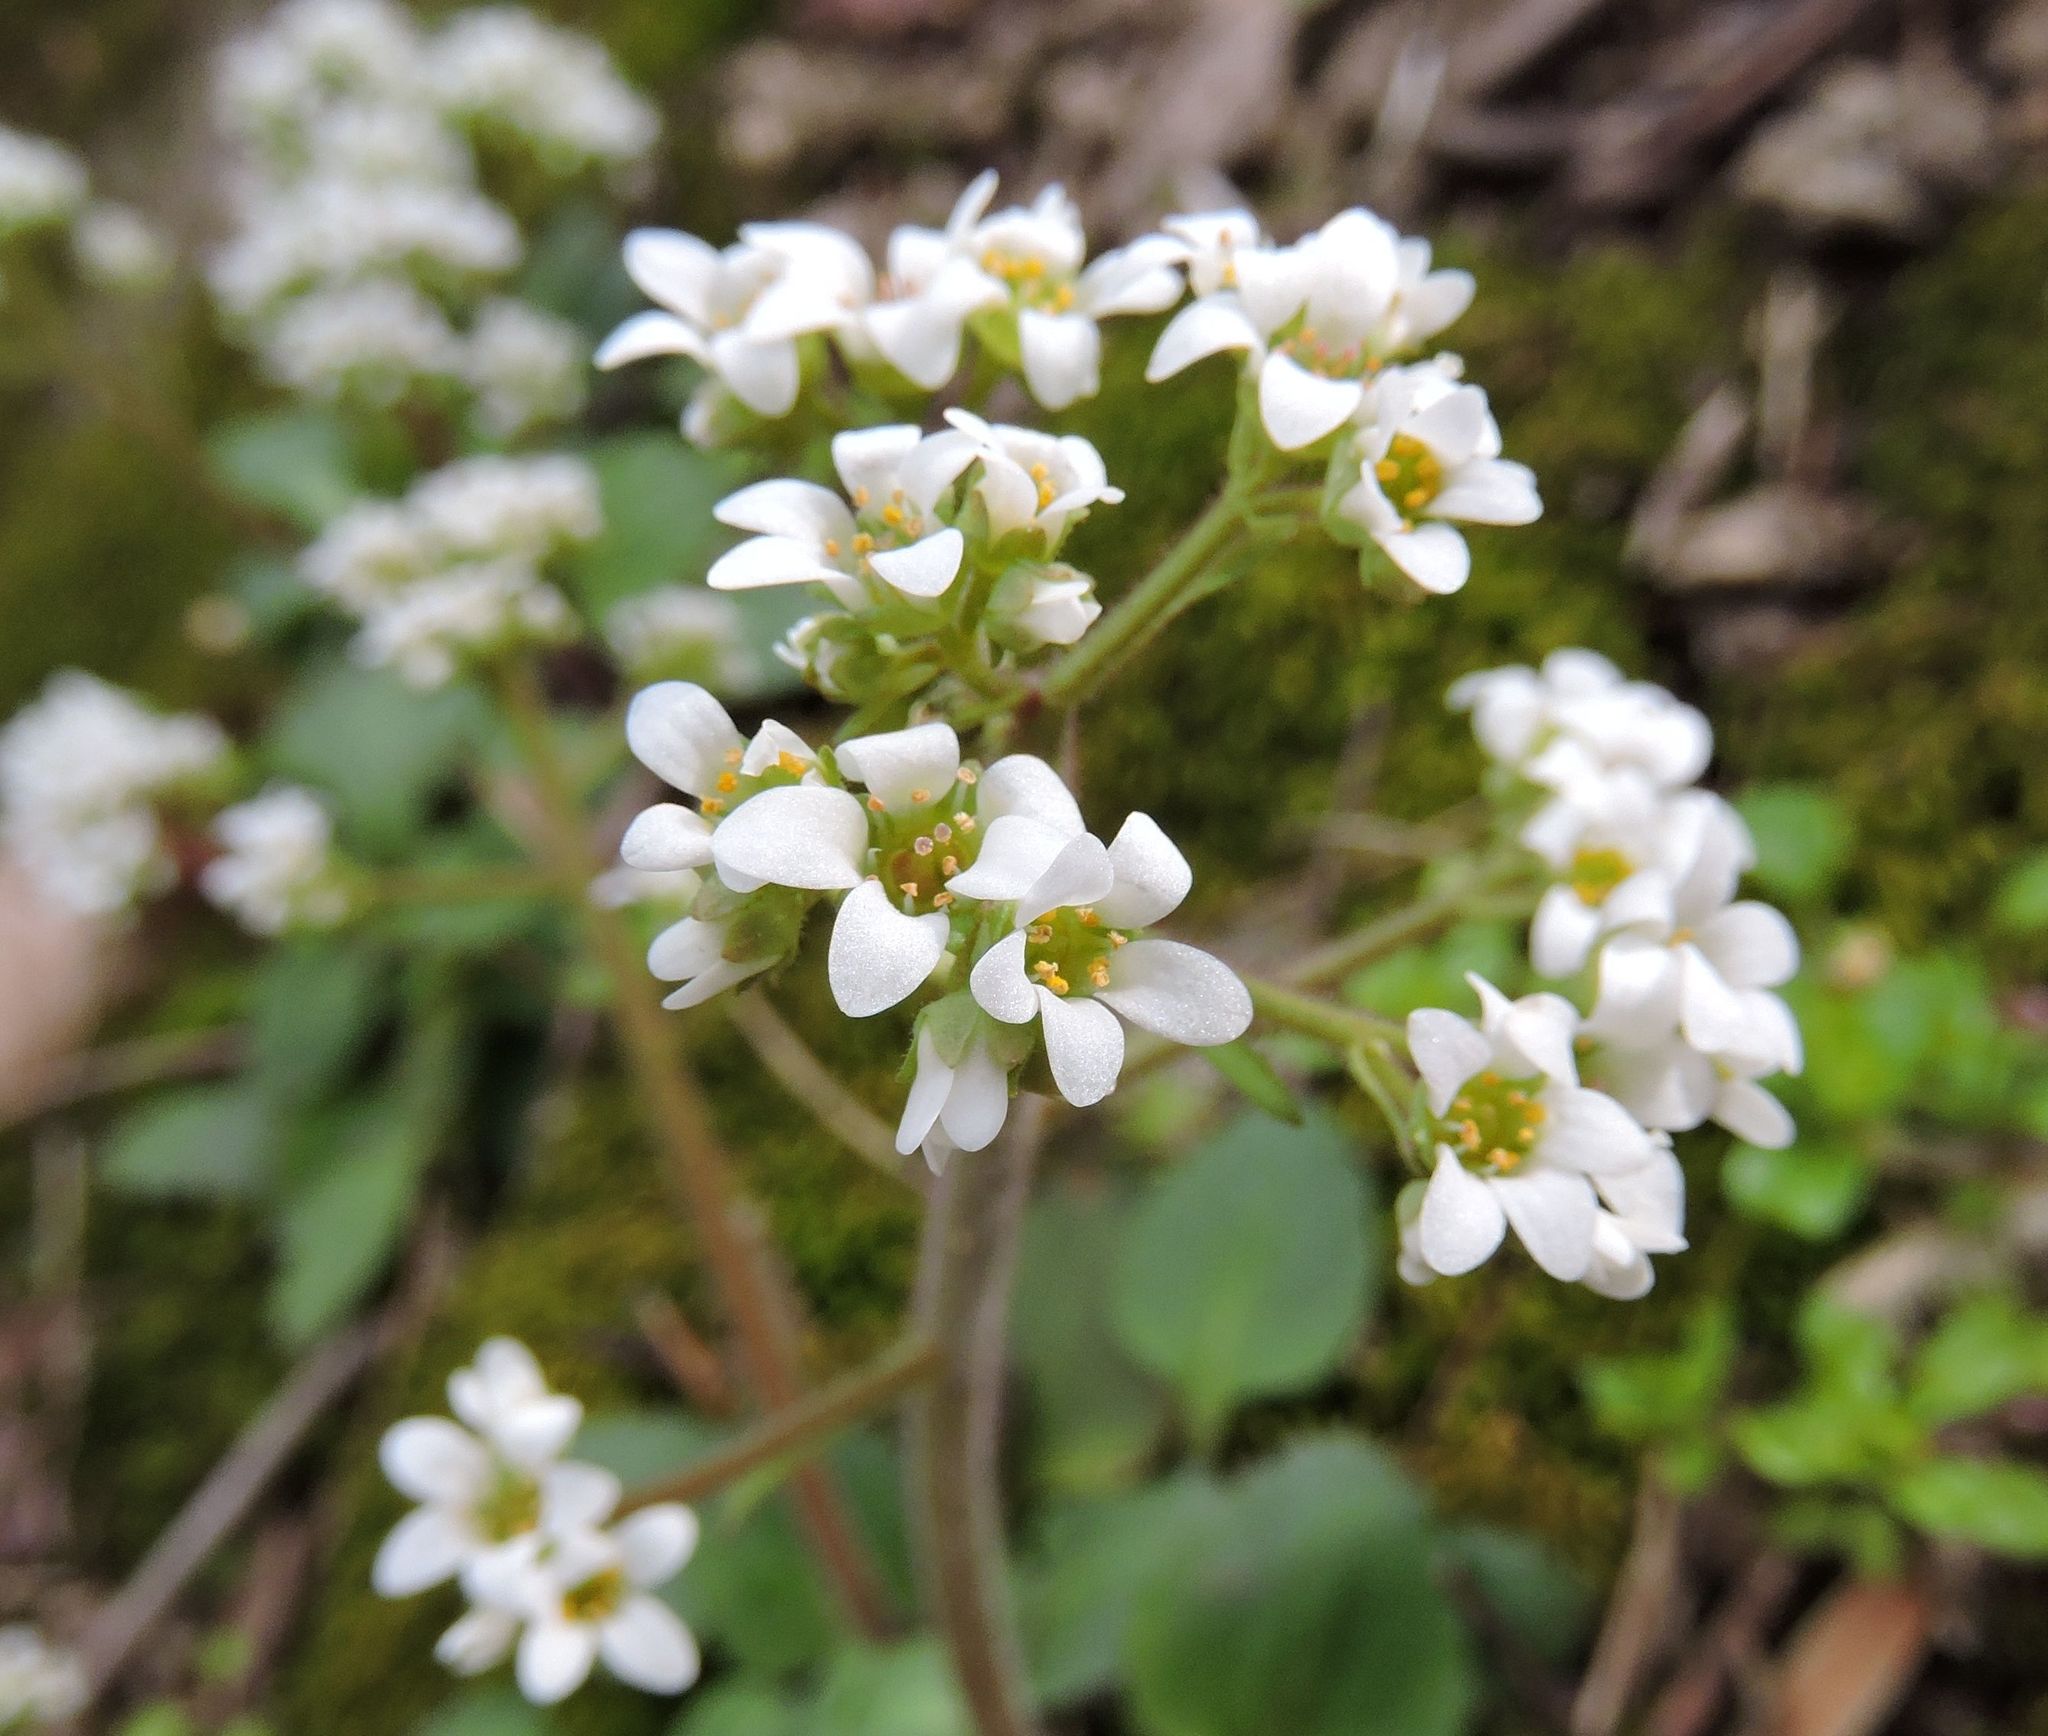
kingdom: Plantae
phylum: Tracheophyta
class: Magnoliopsida
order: Saxifragales
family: Saxifragaceae
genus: Micranthes
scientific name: Micranthes virginiensis
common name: Early saxifrage
